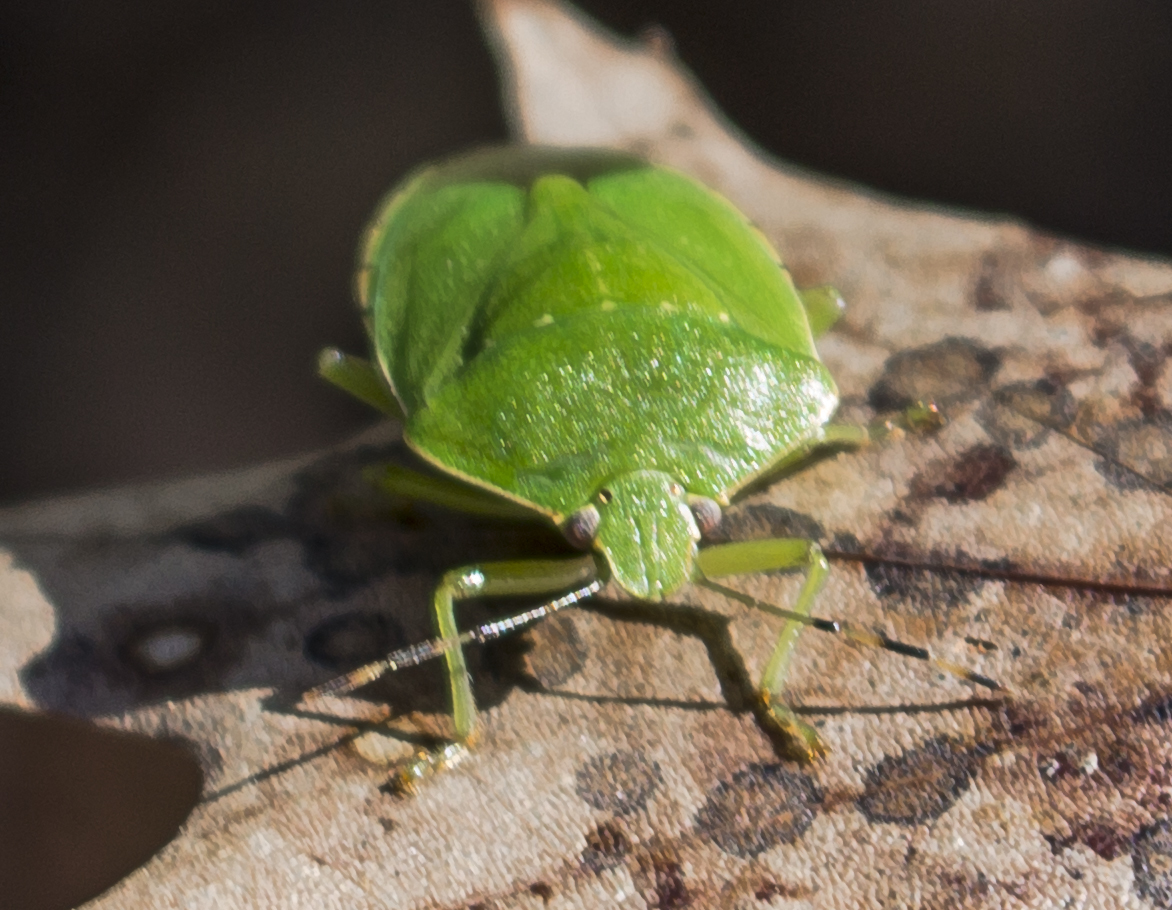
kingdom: Animalia
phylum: Arthropoda
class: Insecta
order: Hemiptera
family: Pentatomidae
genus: Chinavia
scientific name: Chinavia hilaris
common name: Green stink bug
